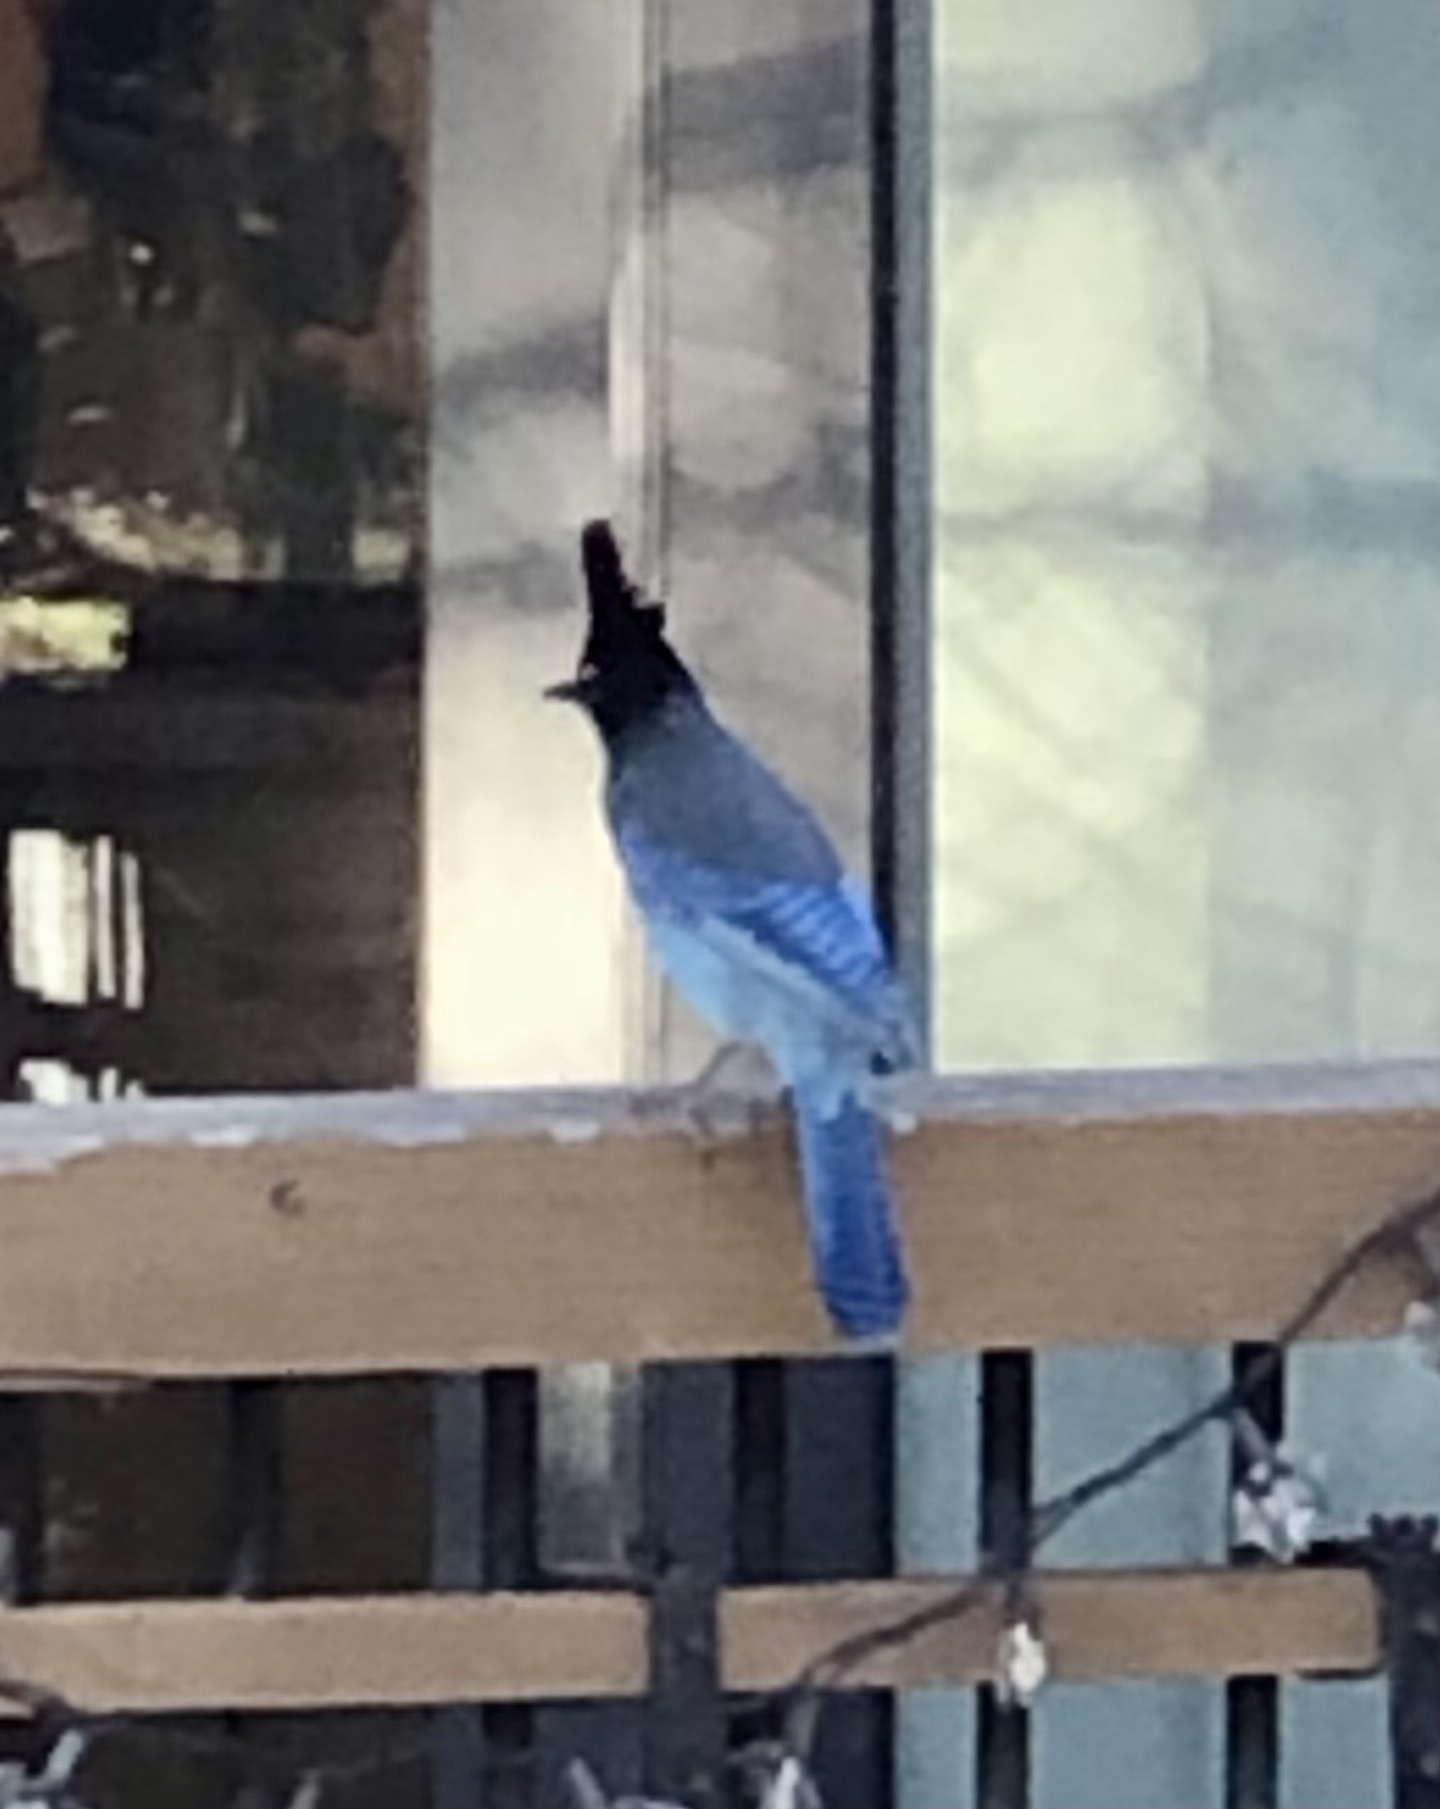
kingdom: Animalia
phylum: Chordata
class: Aves
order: Passeriformes
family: Corvidae
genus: Cyanocitta
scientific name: Cyanocitta stelleri
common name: Steller's jay
